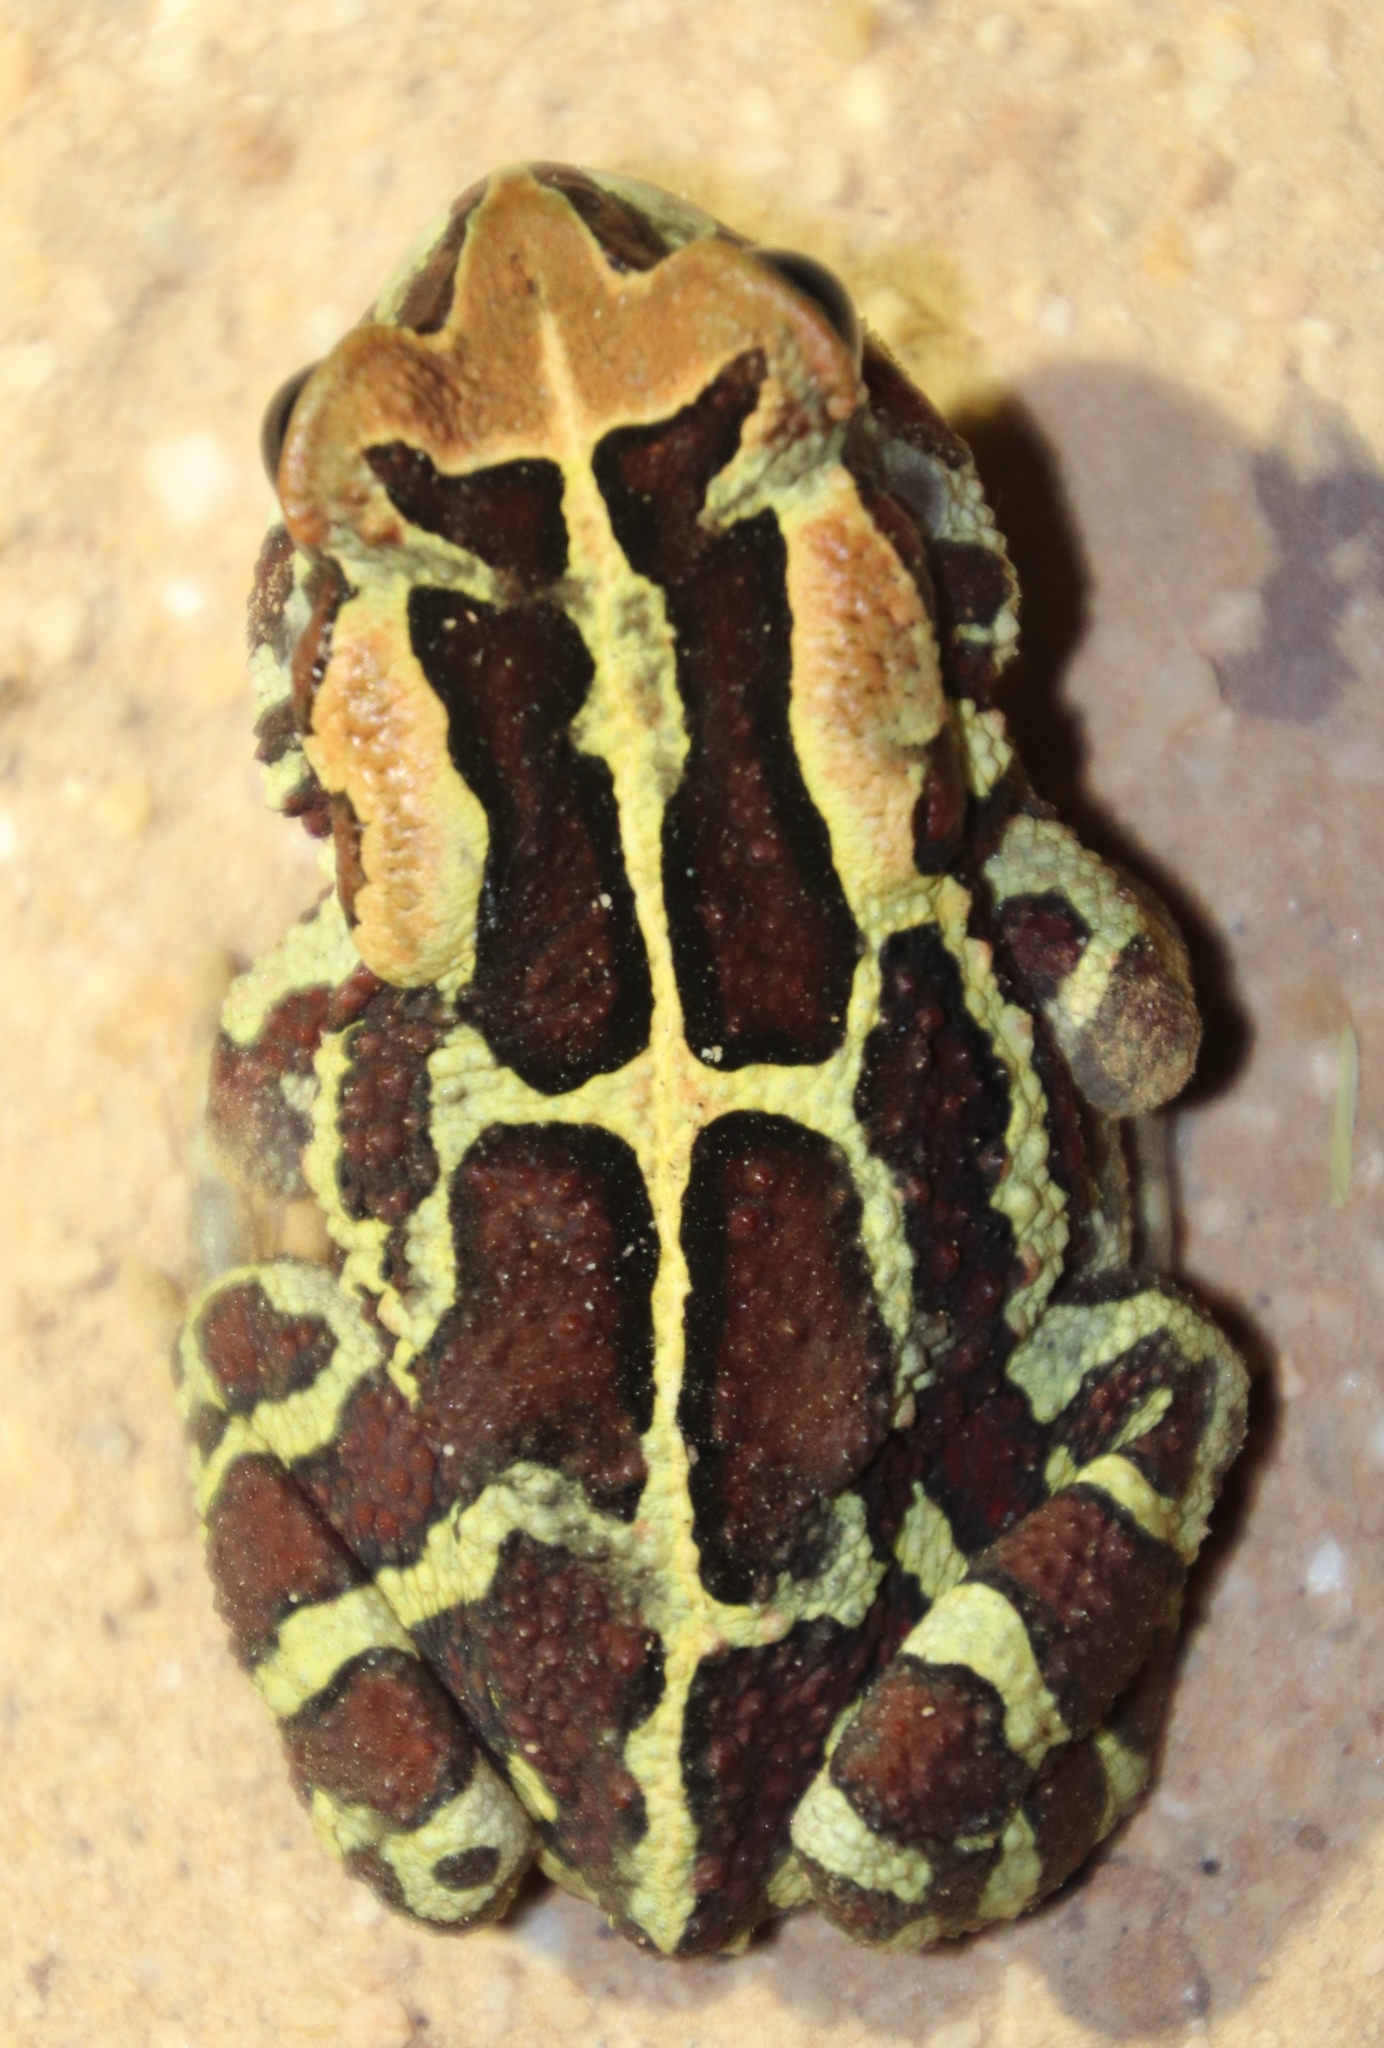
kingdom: Animalia
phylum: Chordata
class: Amphibia
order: Anura
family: Bufonidae
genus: Sclerophrys
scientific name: Sclerophrys pantherina
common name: Panther toad
